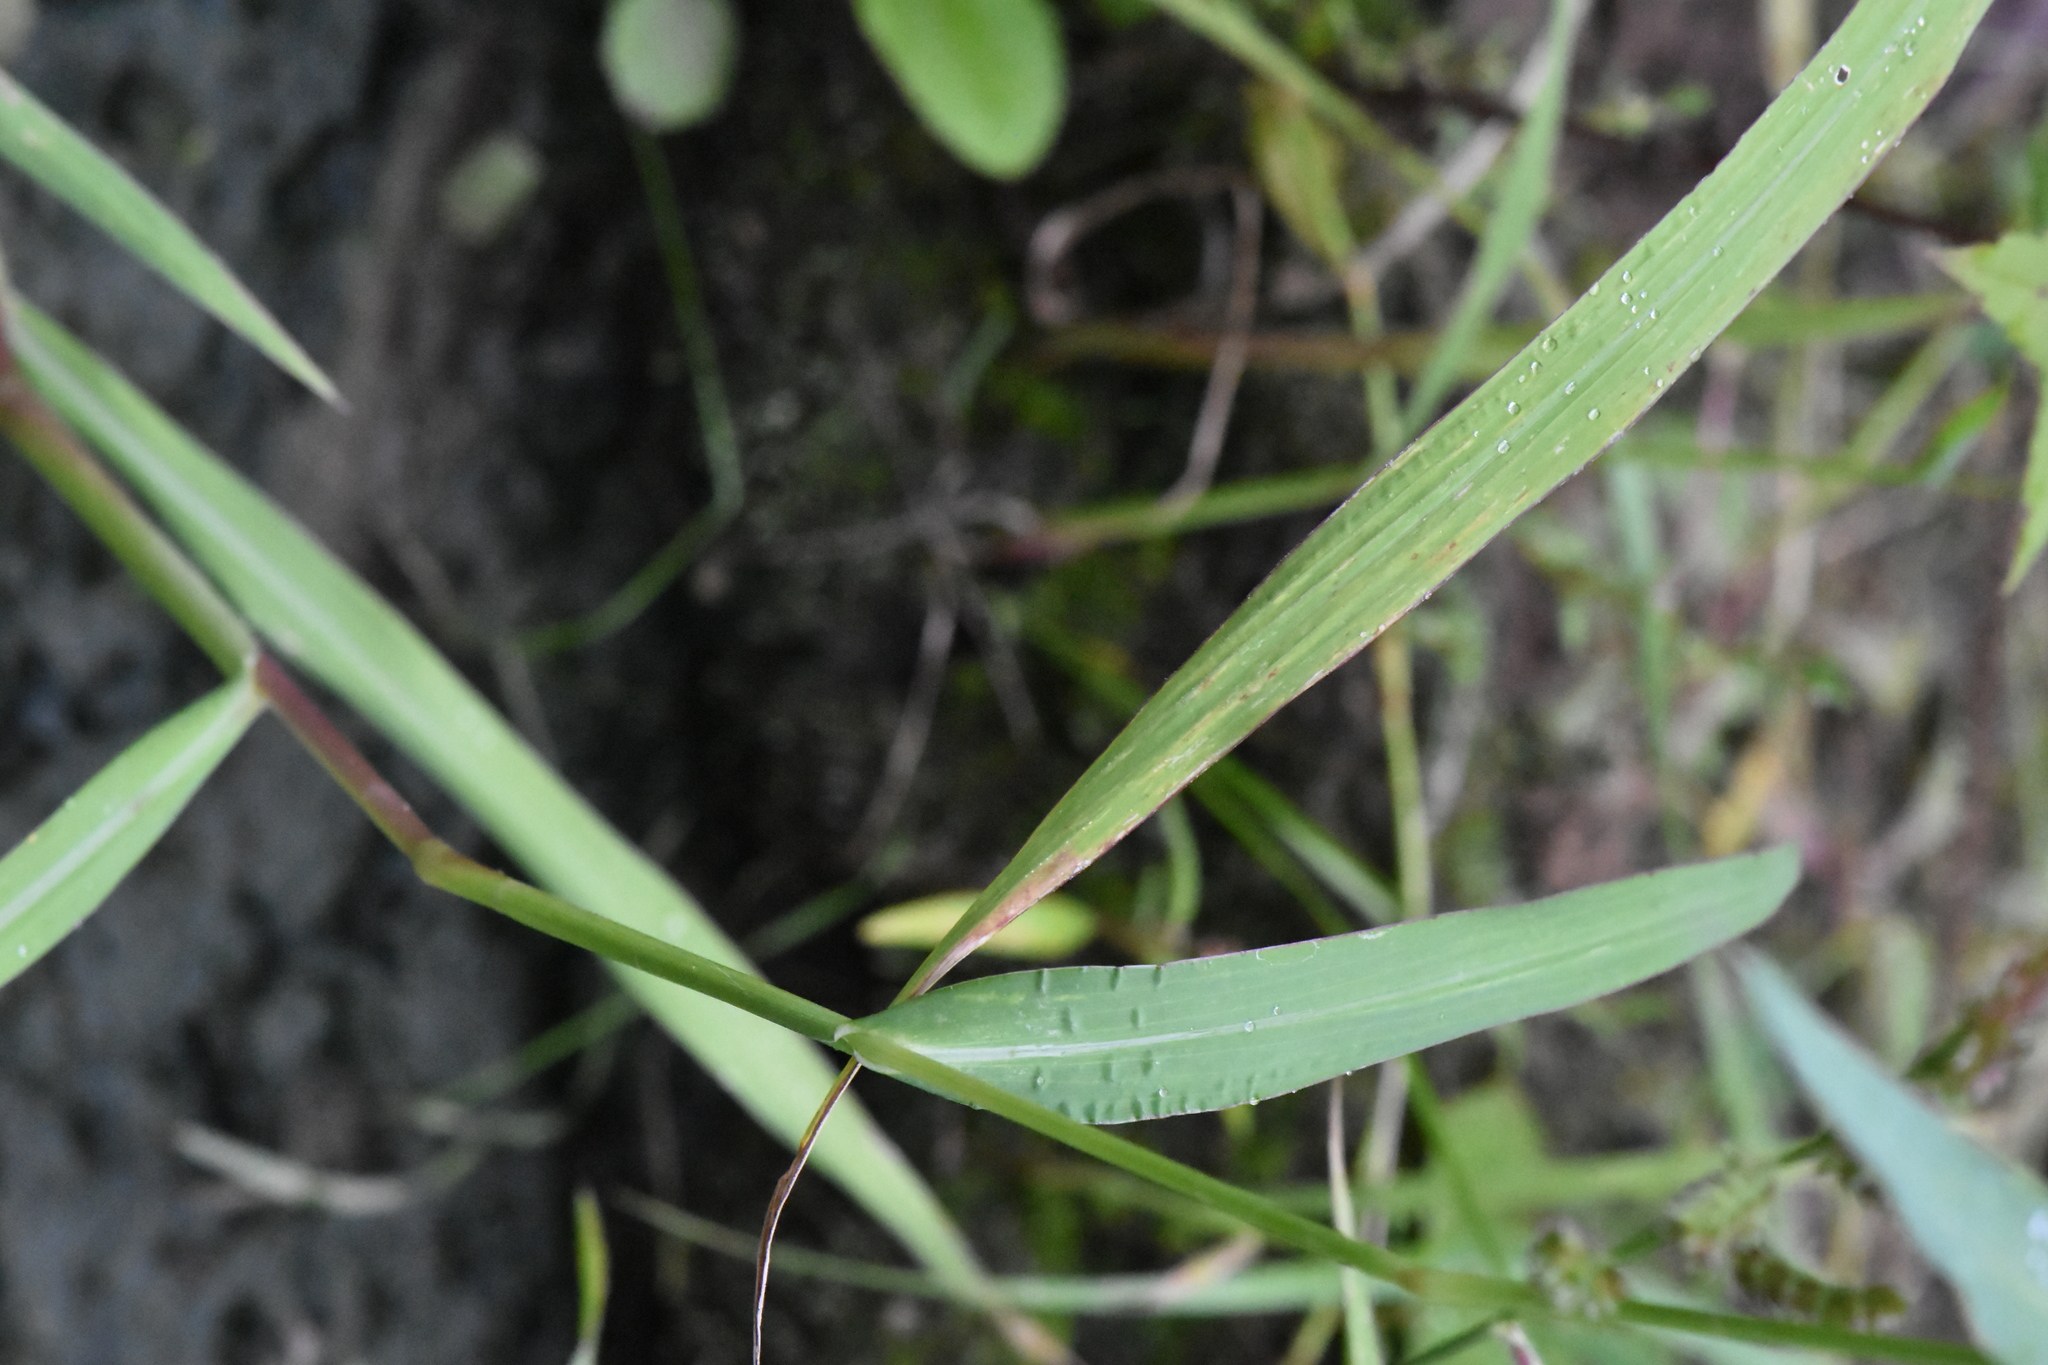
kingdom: Plantae
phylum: Tracheophyta
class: Liliopsida
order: Poales
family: Poaceae
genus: Echinochloa
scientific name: Echinochloa crus-galli
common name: Cockspur
